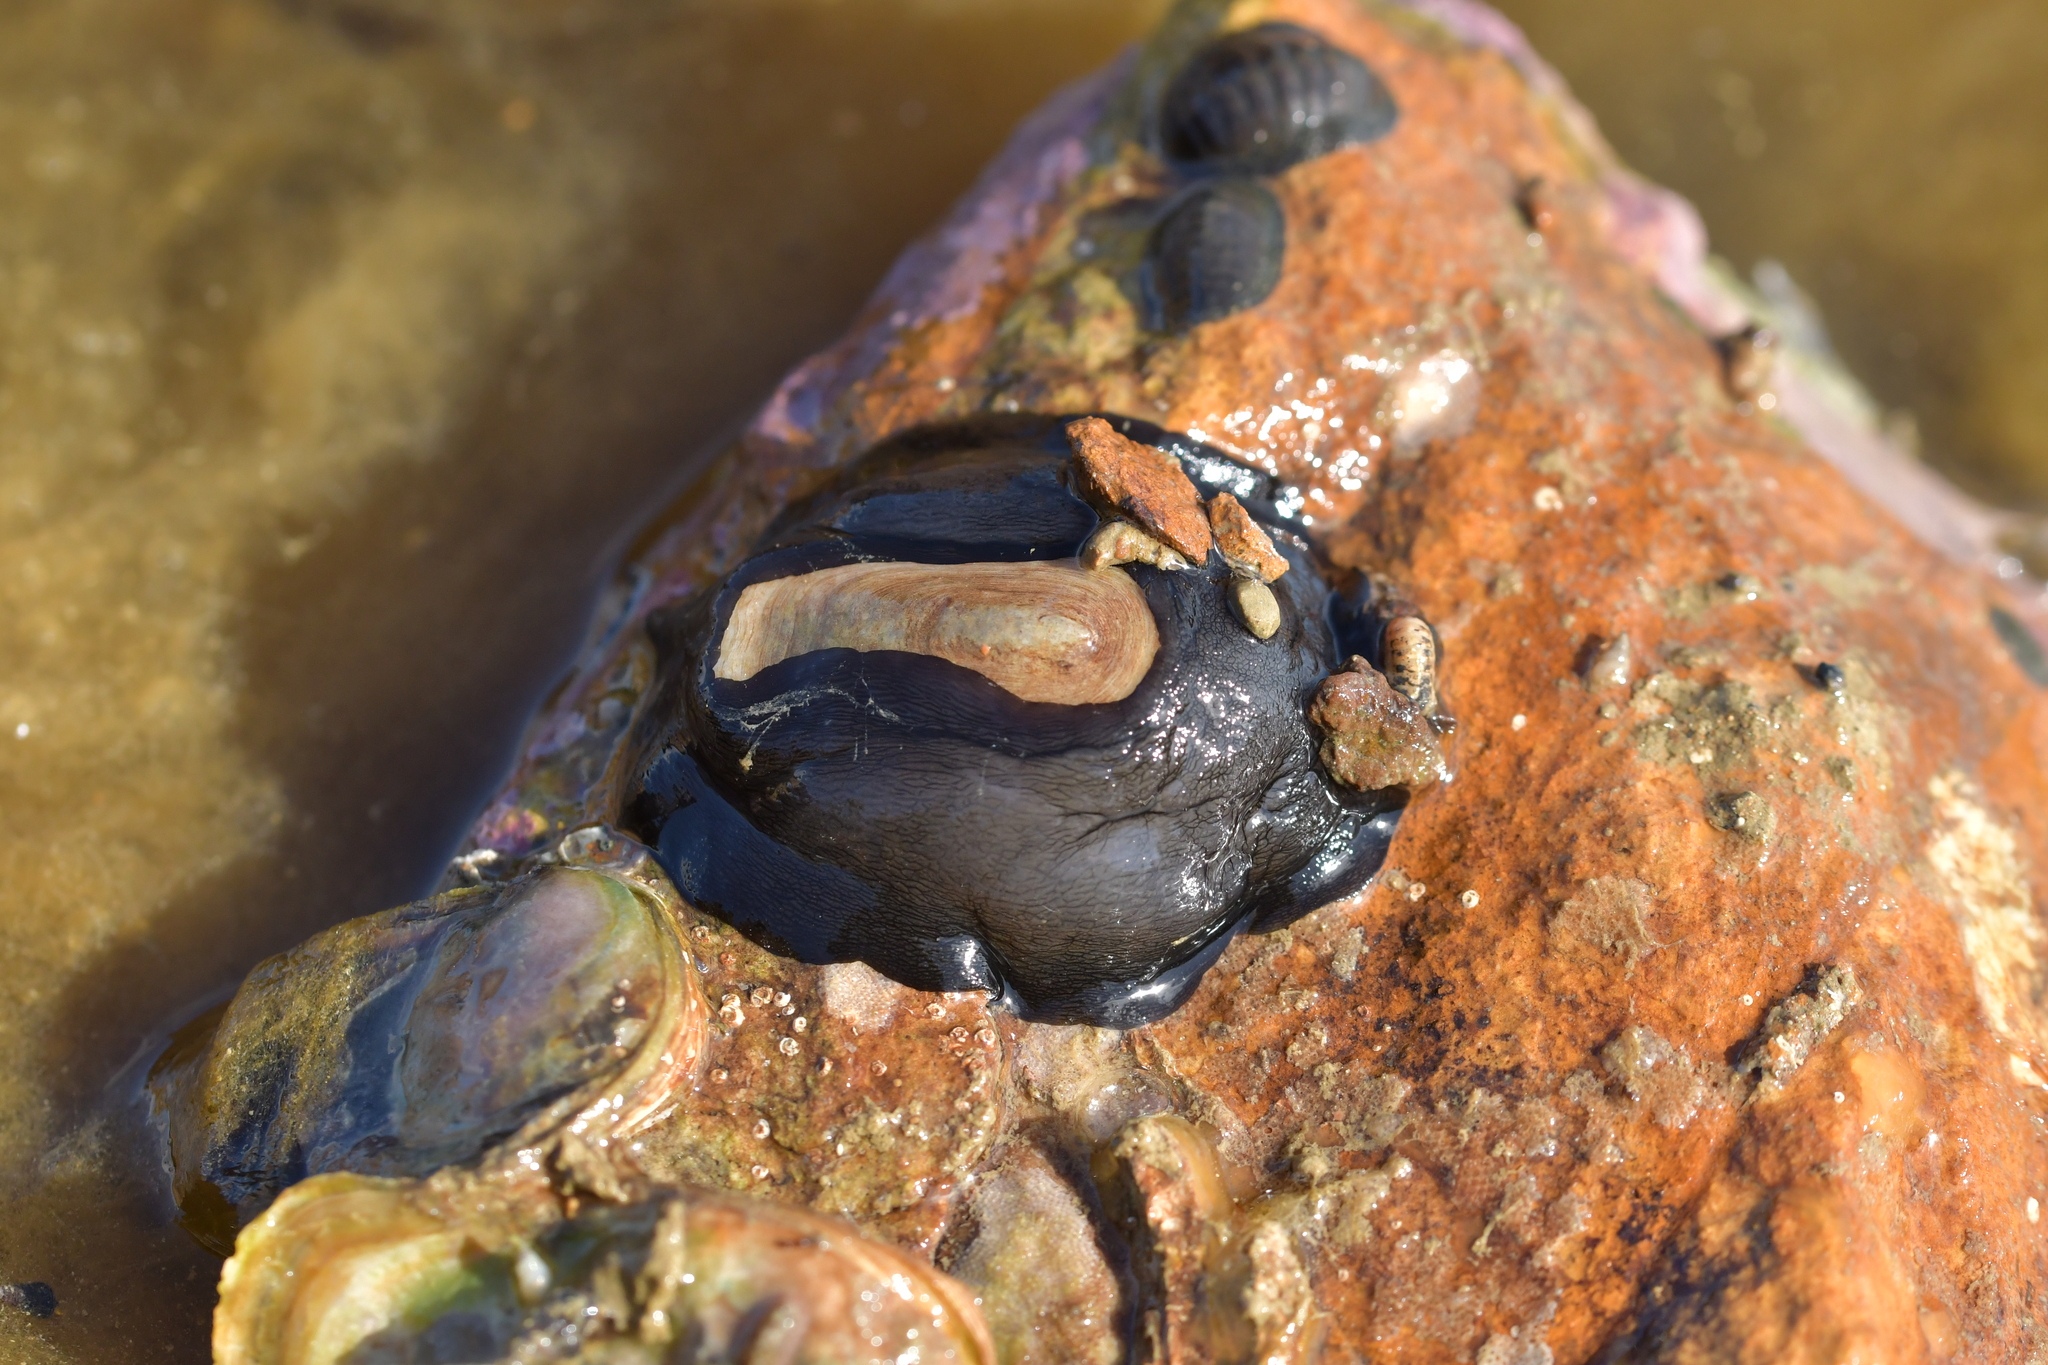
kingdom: Animalia
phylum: Mollusca
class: Gastropoda
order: Lepetellida
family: Fissurellidae
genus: Scutus
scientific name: Scutus breviculus
